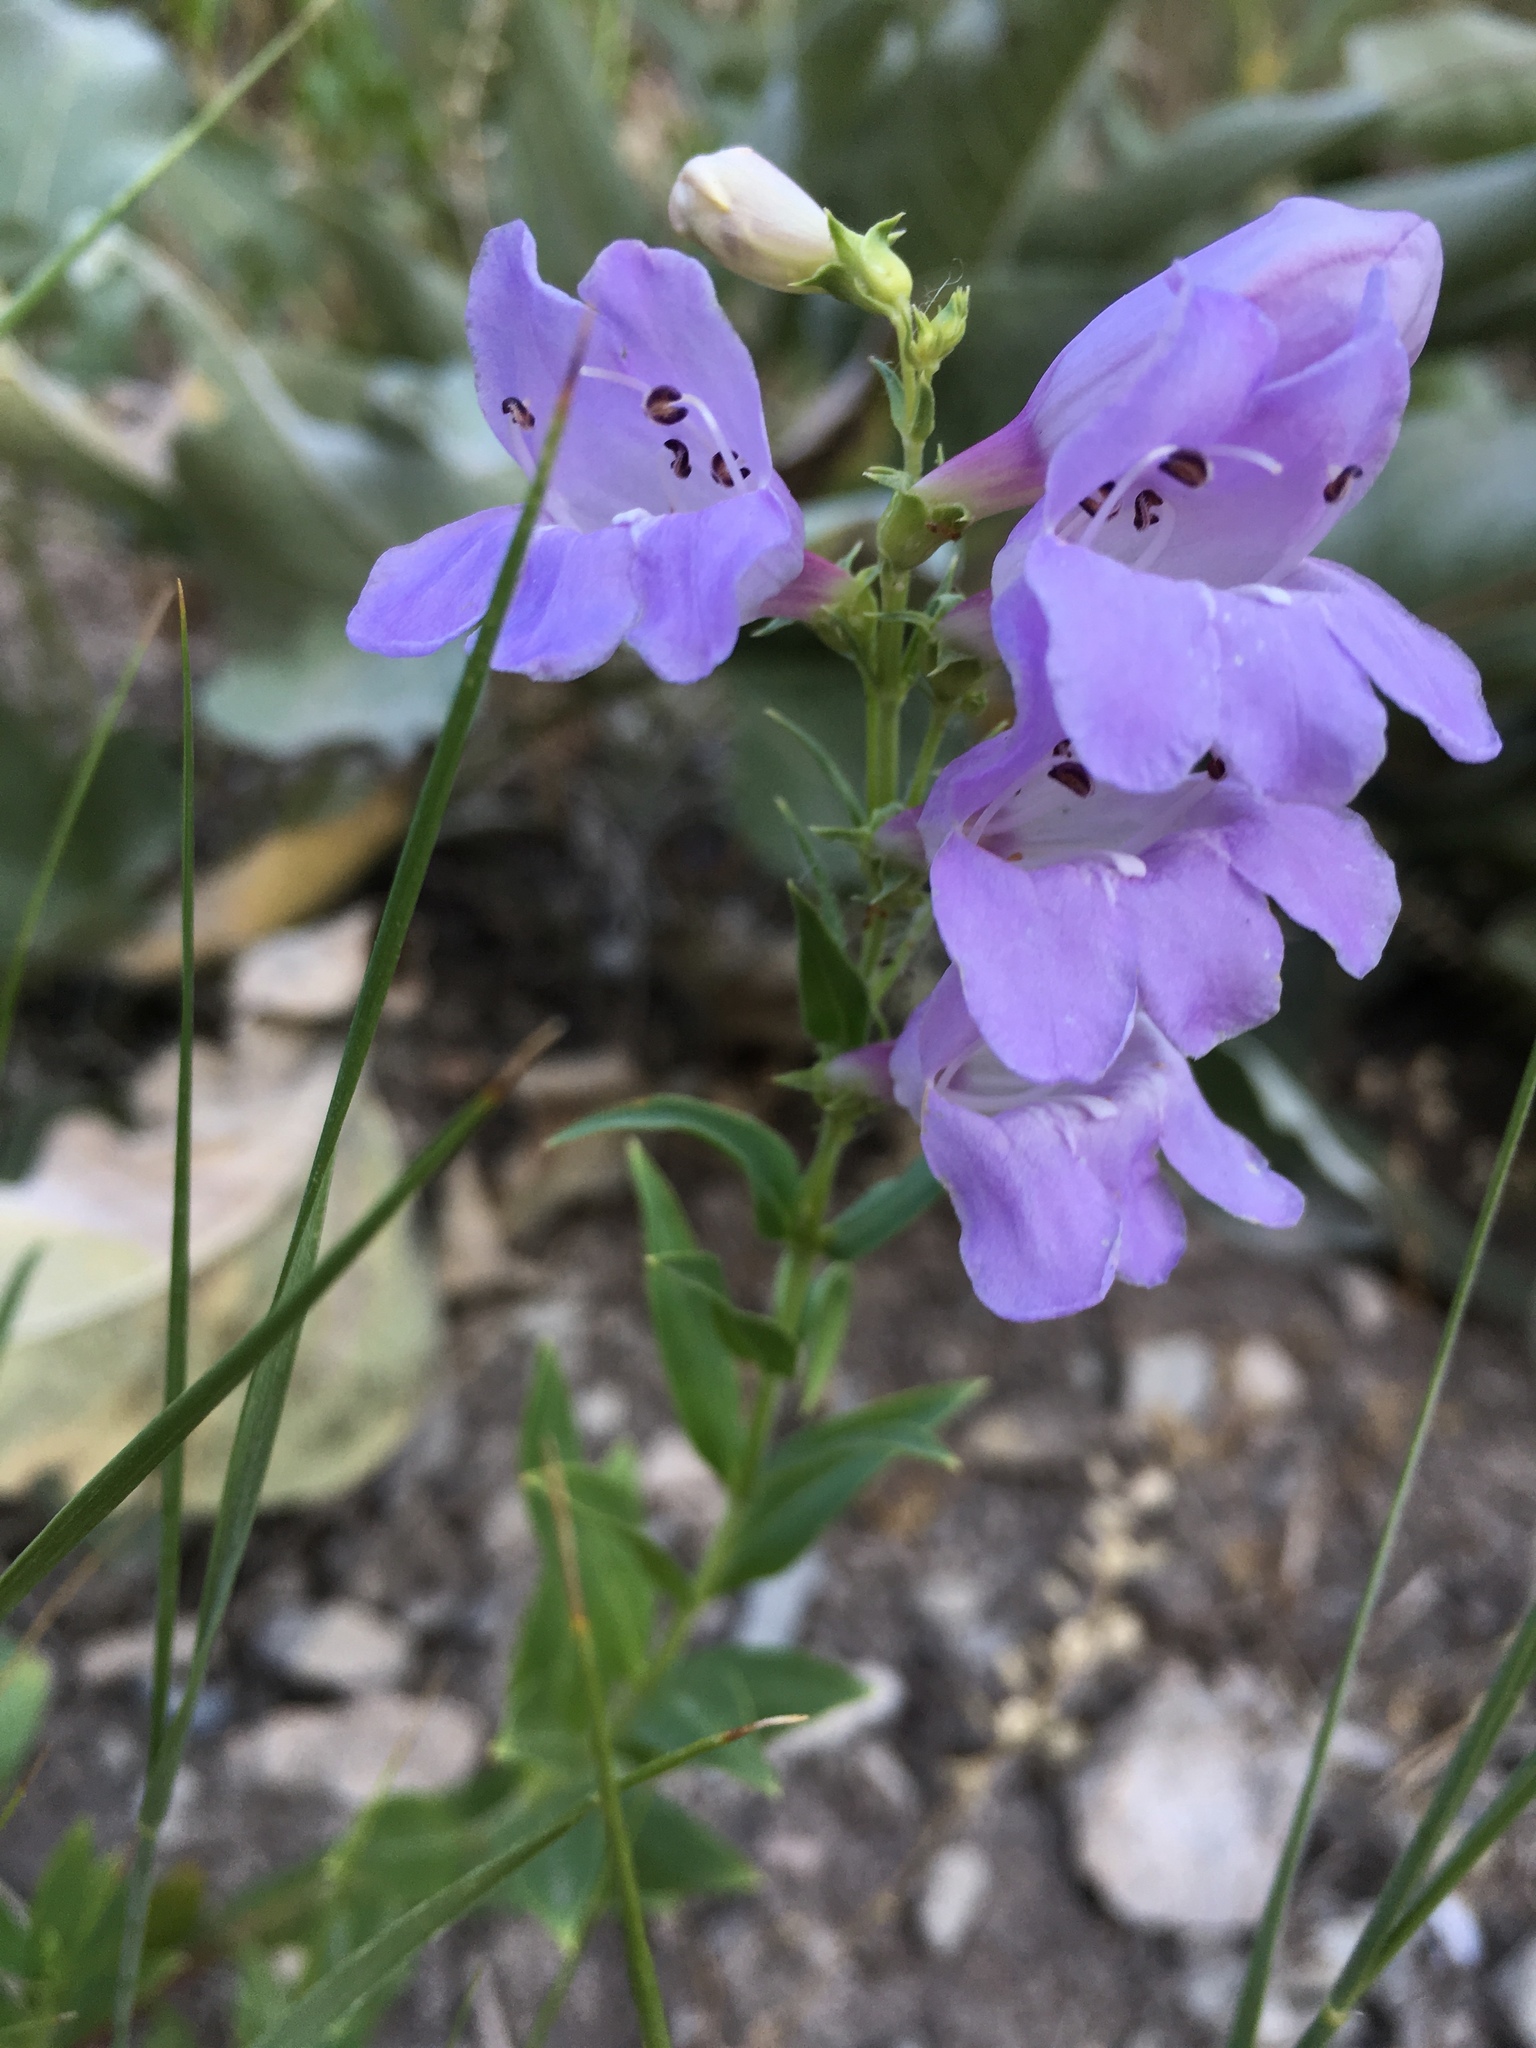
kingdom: Plantae
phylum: Tracheophyta
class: Magnoliopsida
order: Lamiales
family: Plantaginaceae
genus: Penstemon
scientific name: Penstemon platyphyllus
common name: Broadleaf penstemon
